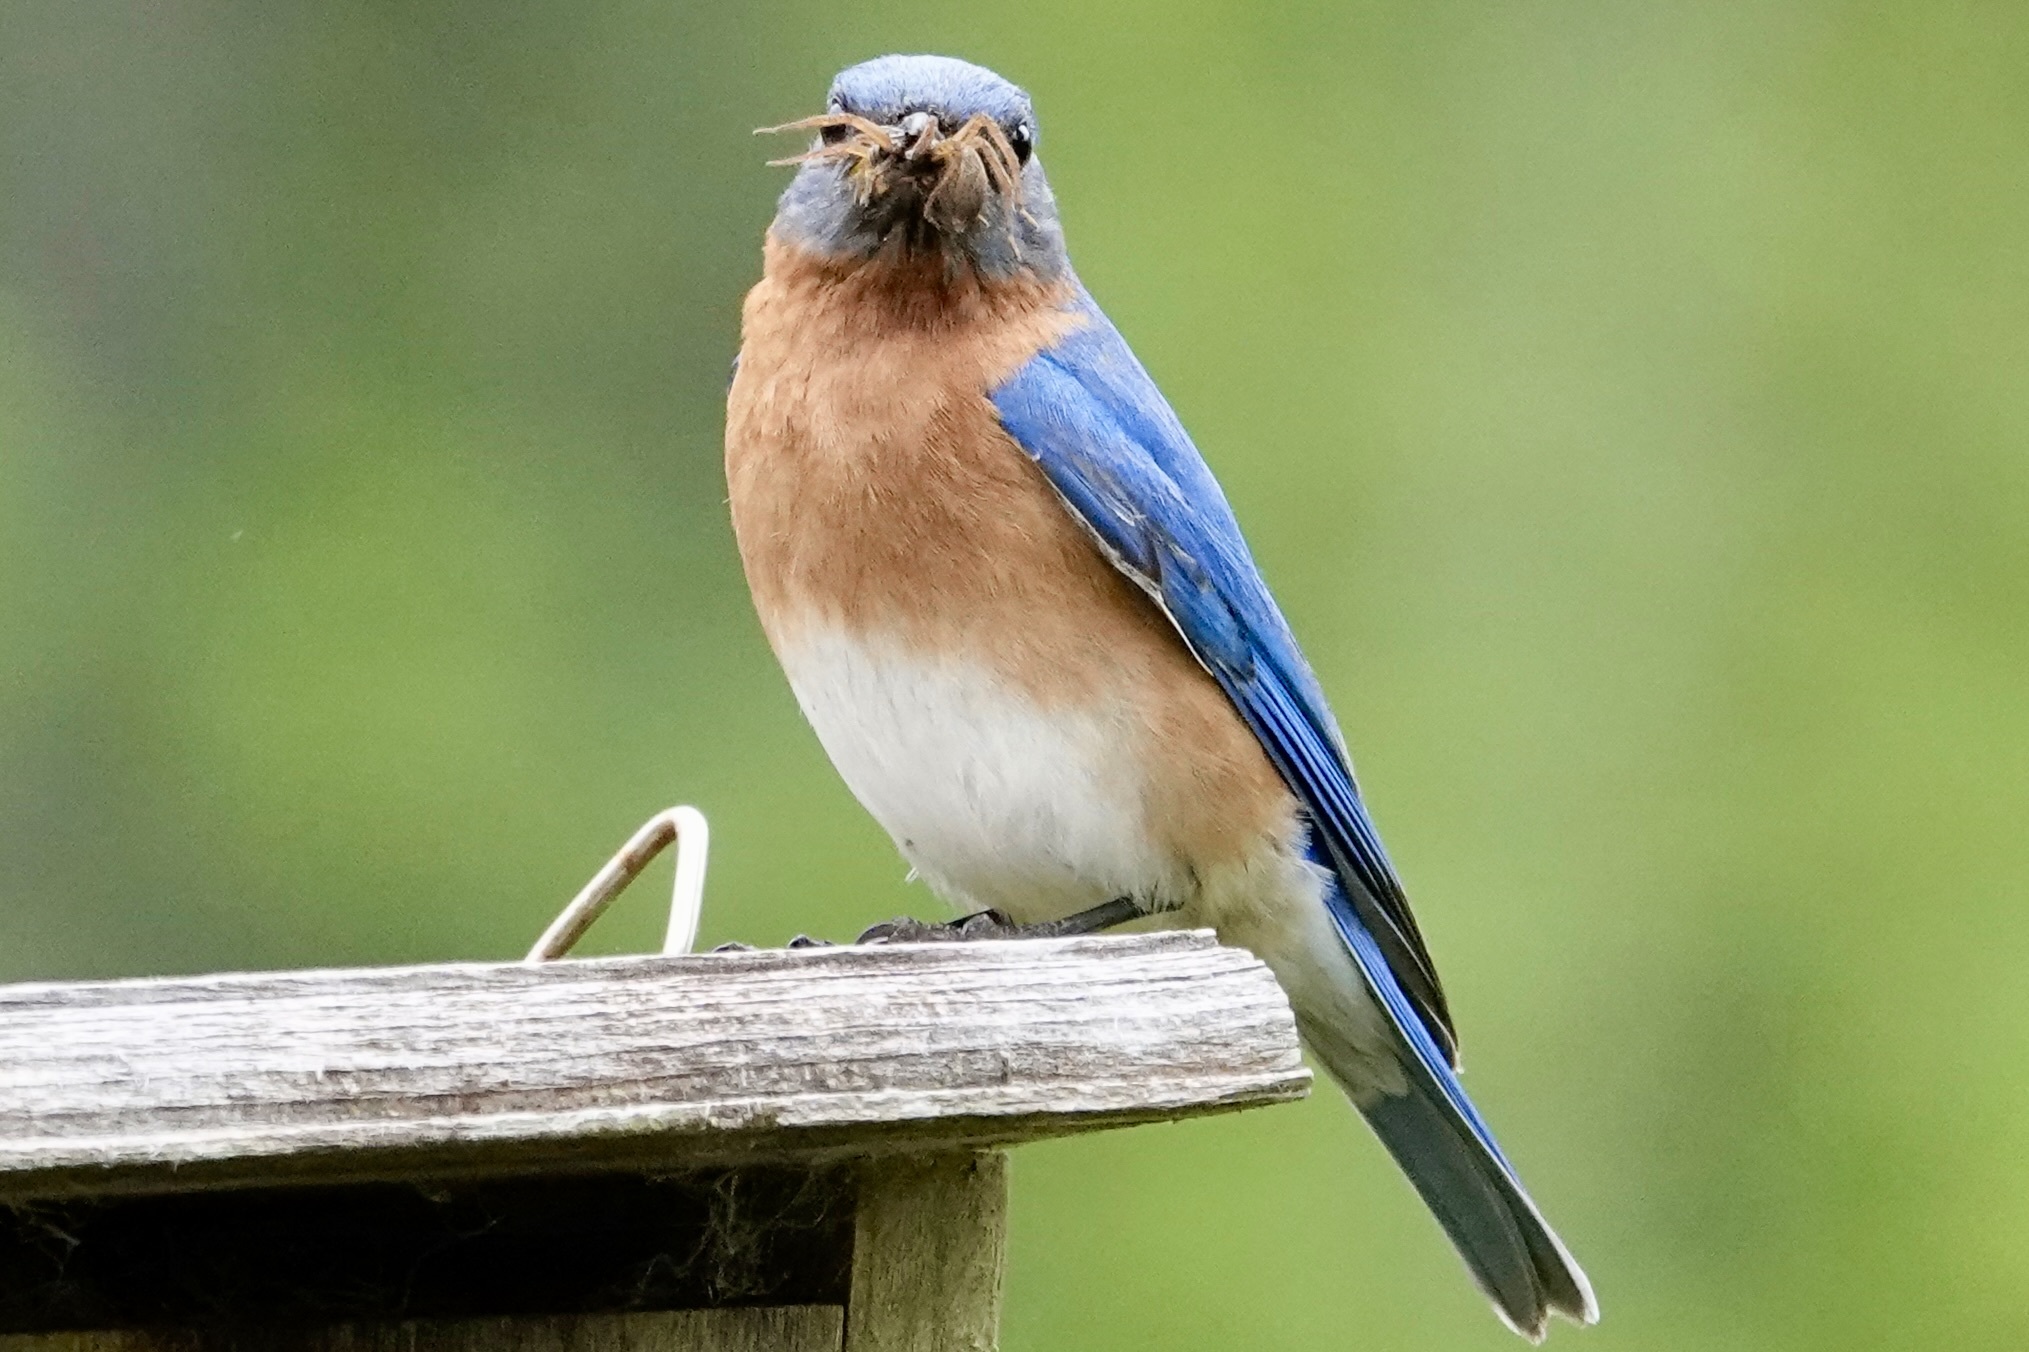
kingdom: Animalia
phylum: Chordata
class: Aves
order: Passeriformes
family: Turdidae
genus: Sialia
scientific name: Sialia sialis
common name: Eastern bluebird
